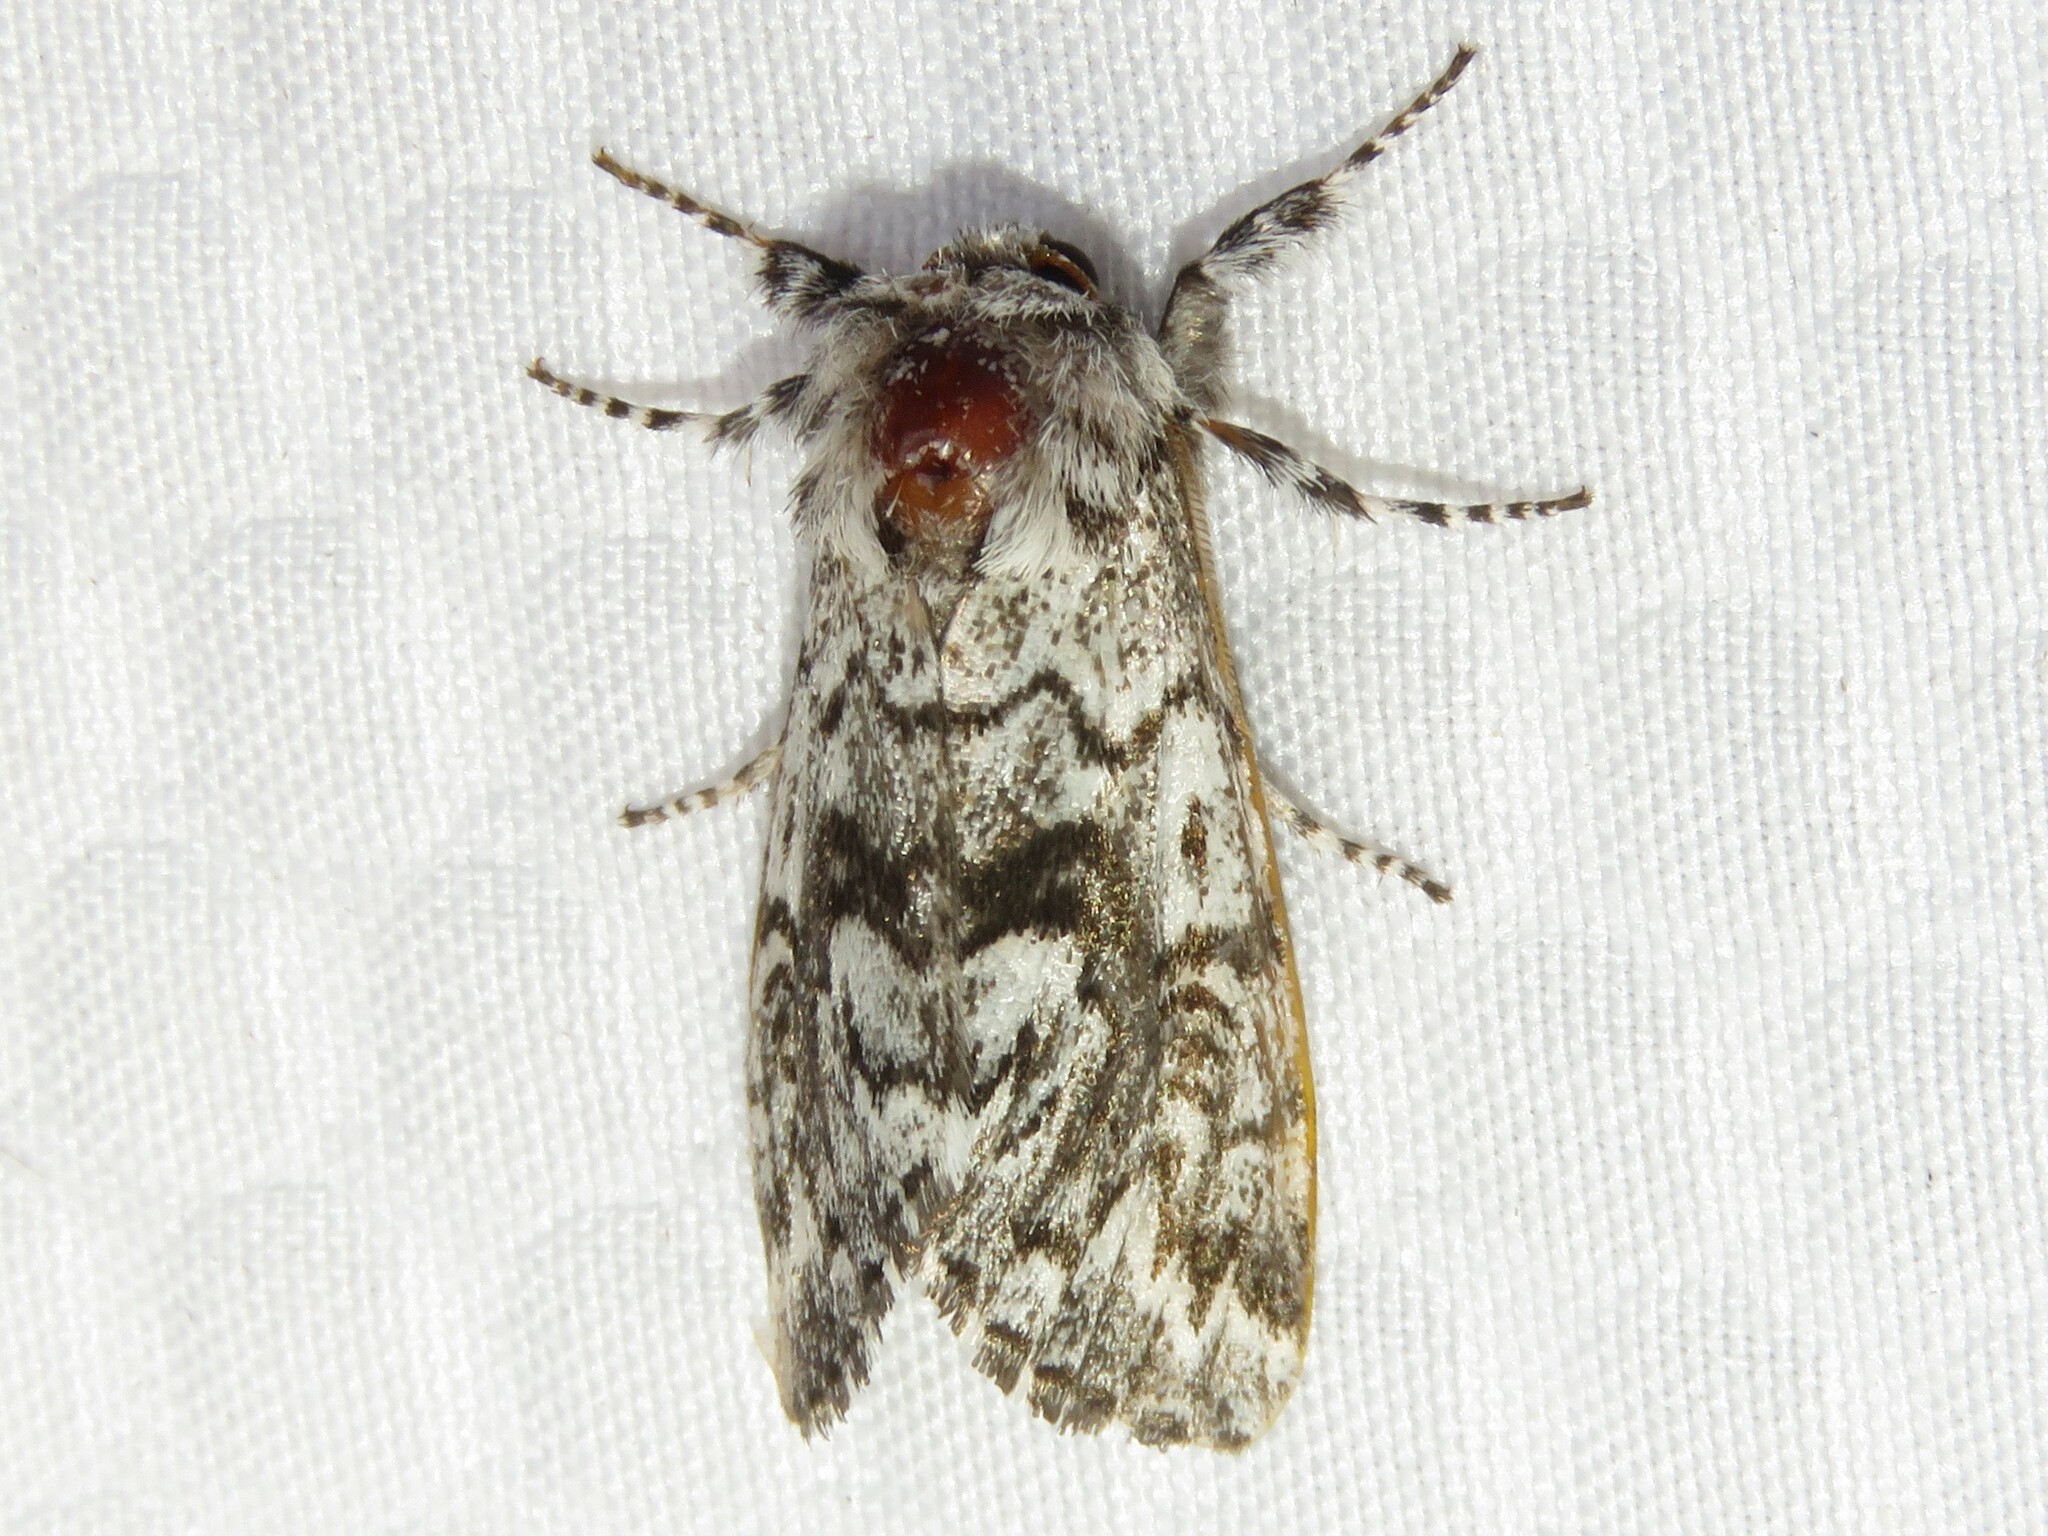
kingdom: Animalia
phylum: Arthropoda
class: Insecta
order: Lepidoptera
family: Noctuidae
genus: Panthea
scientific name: Panthea acronyctoides
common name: Black zigzag moth
